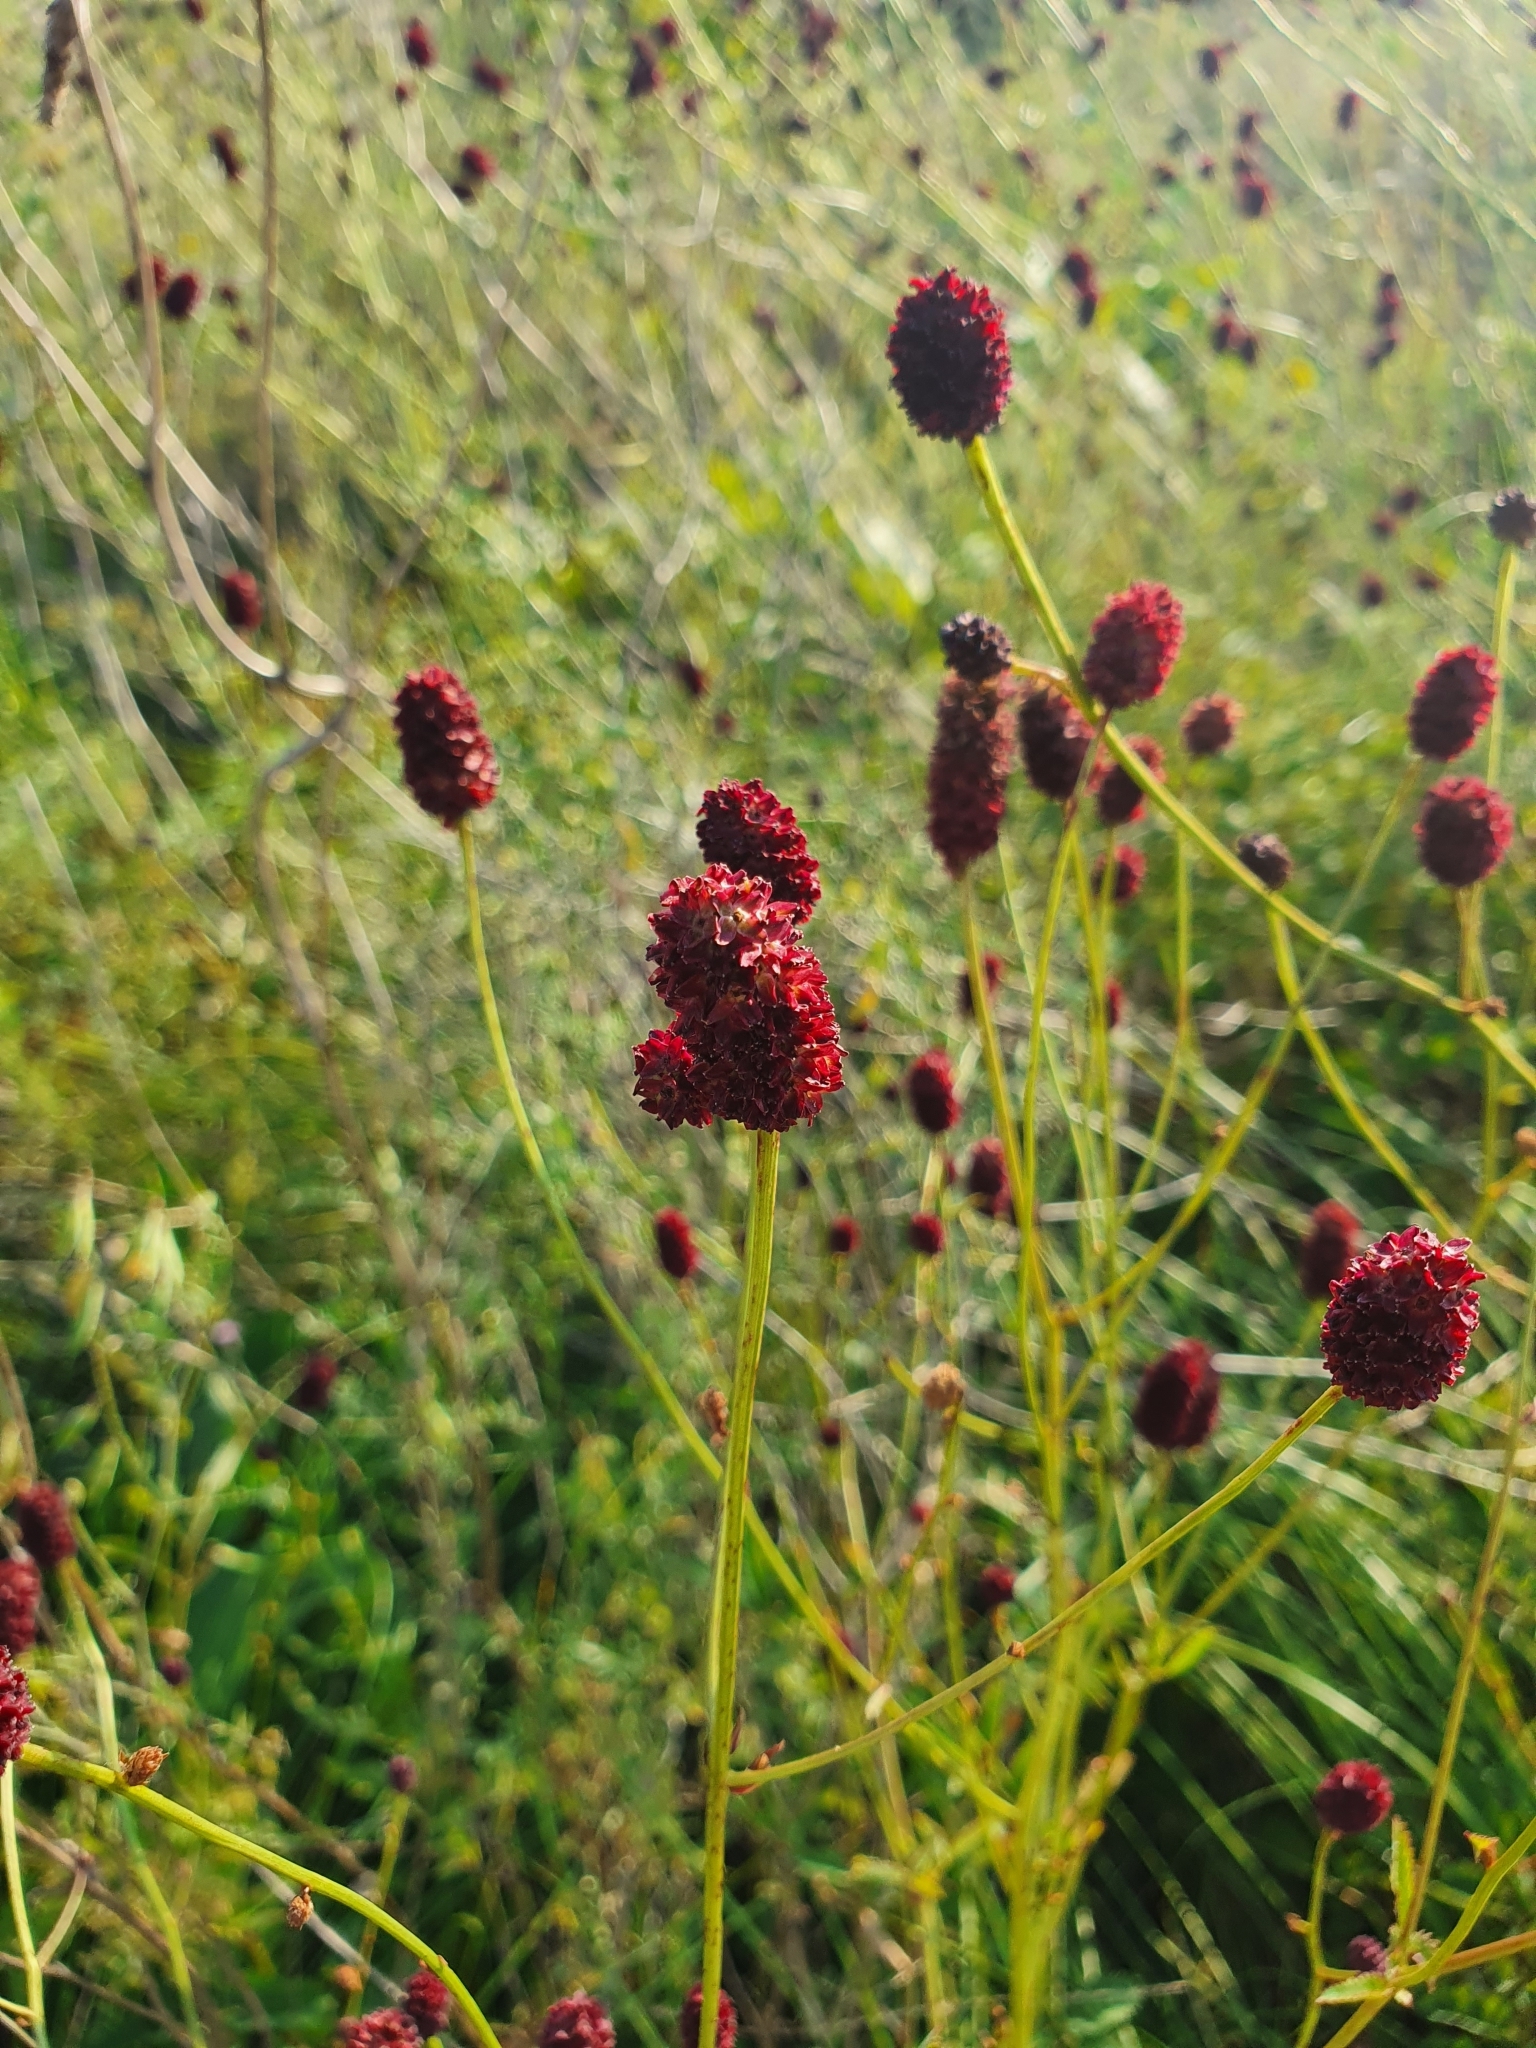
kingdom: Plantae
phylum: Tracheophyta
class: Magnoliopsida
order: Rosales
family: Rosaceae
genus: Sanguisorba
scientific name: Sanguisorba officinalis
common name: Great burnet
